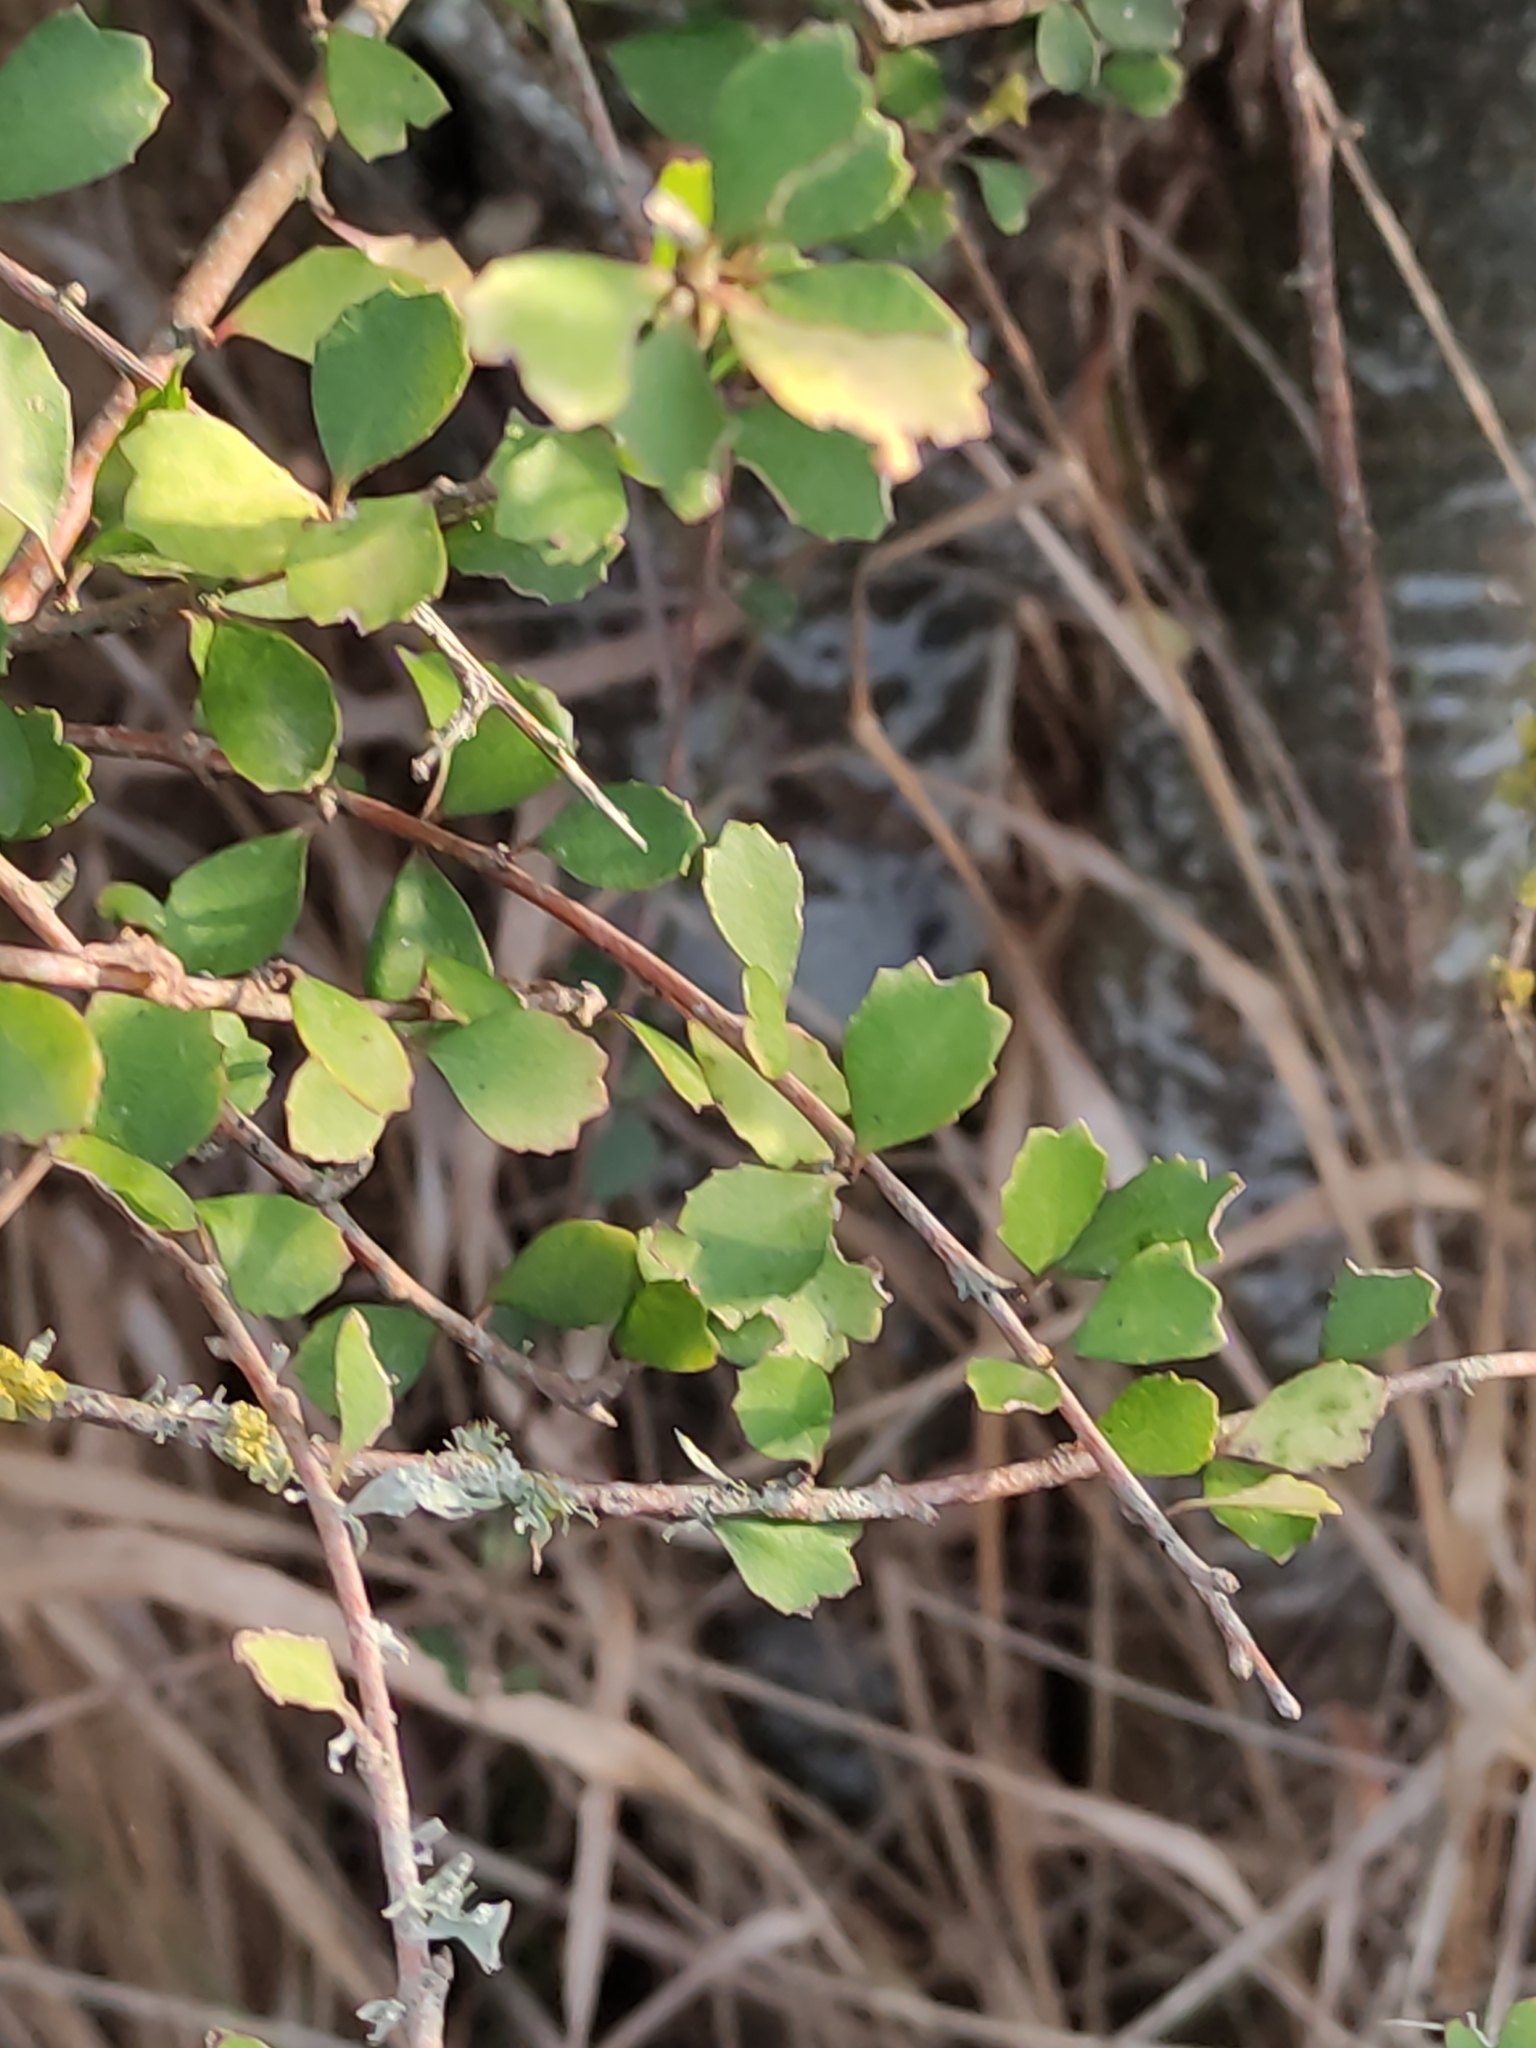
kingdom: Plantae
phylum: Tracheophyta
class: Magnoliopsida
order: Malvales
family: Malvaceae
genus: Hoheria
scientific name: Hoheria angustifolia
